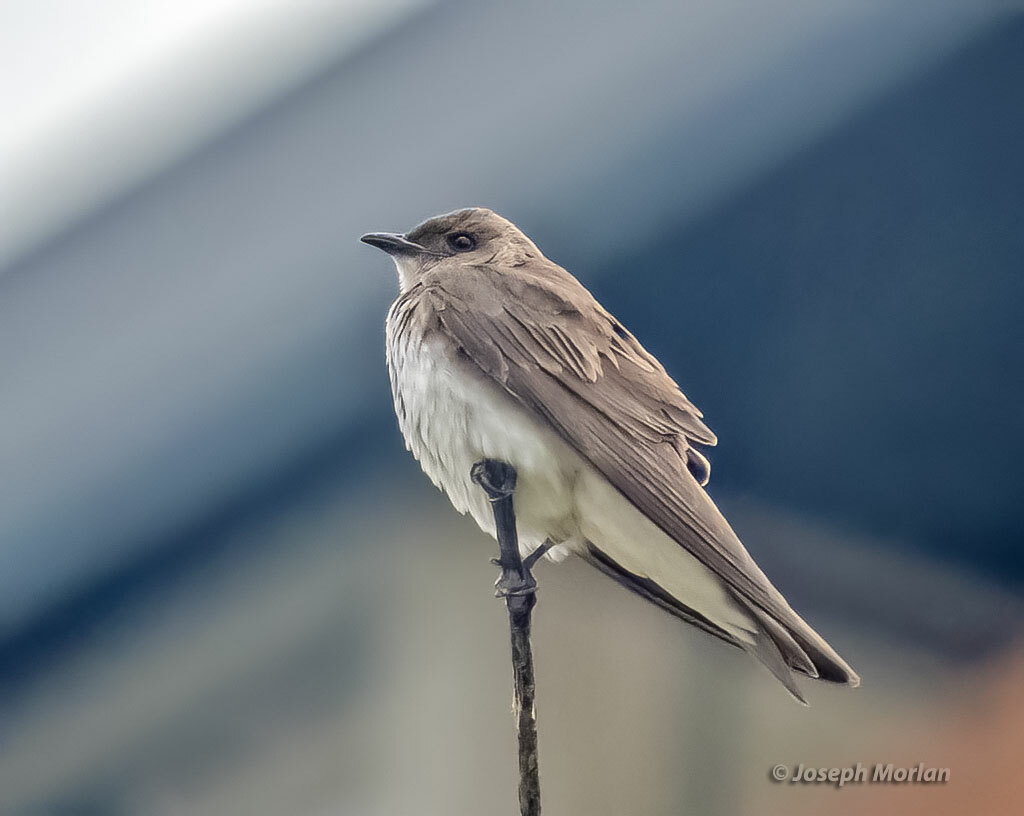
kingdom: Animalia
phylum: Chordata
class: Aves
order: Passeriformes
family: Hirundinidae
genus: Progne
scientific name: Progne tapera
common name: Brown-chested martin
